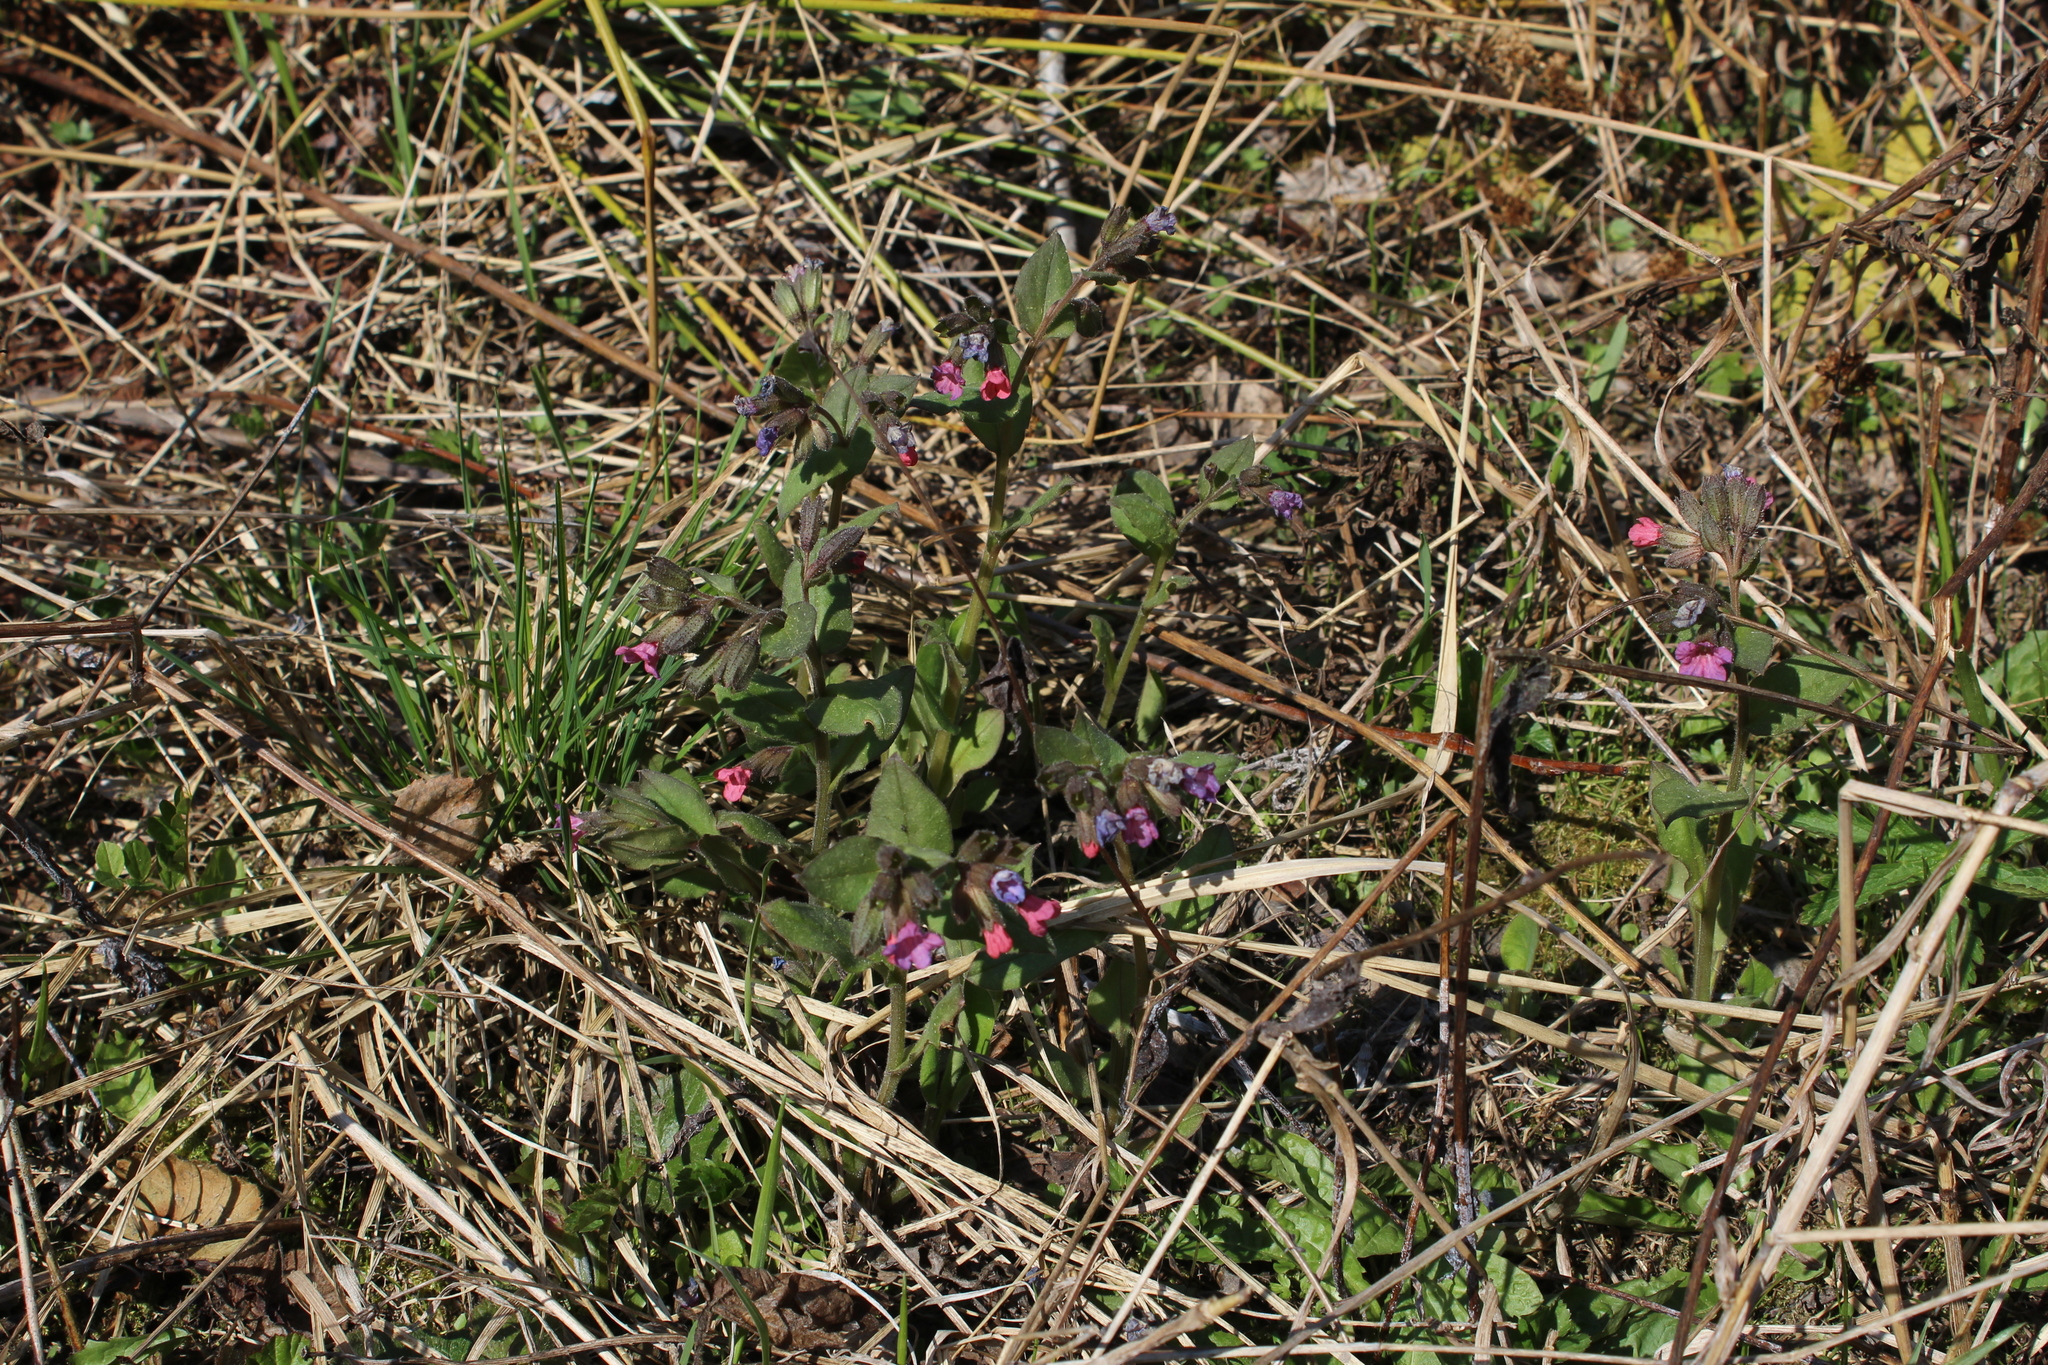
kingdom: Plantae
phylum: Tracheophyta
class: Magnoliopsida
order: Boraginales
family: Boraginaceae
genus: Pulmonaria
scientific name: Pulmonaria obscura
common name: Suffolk lungwort
